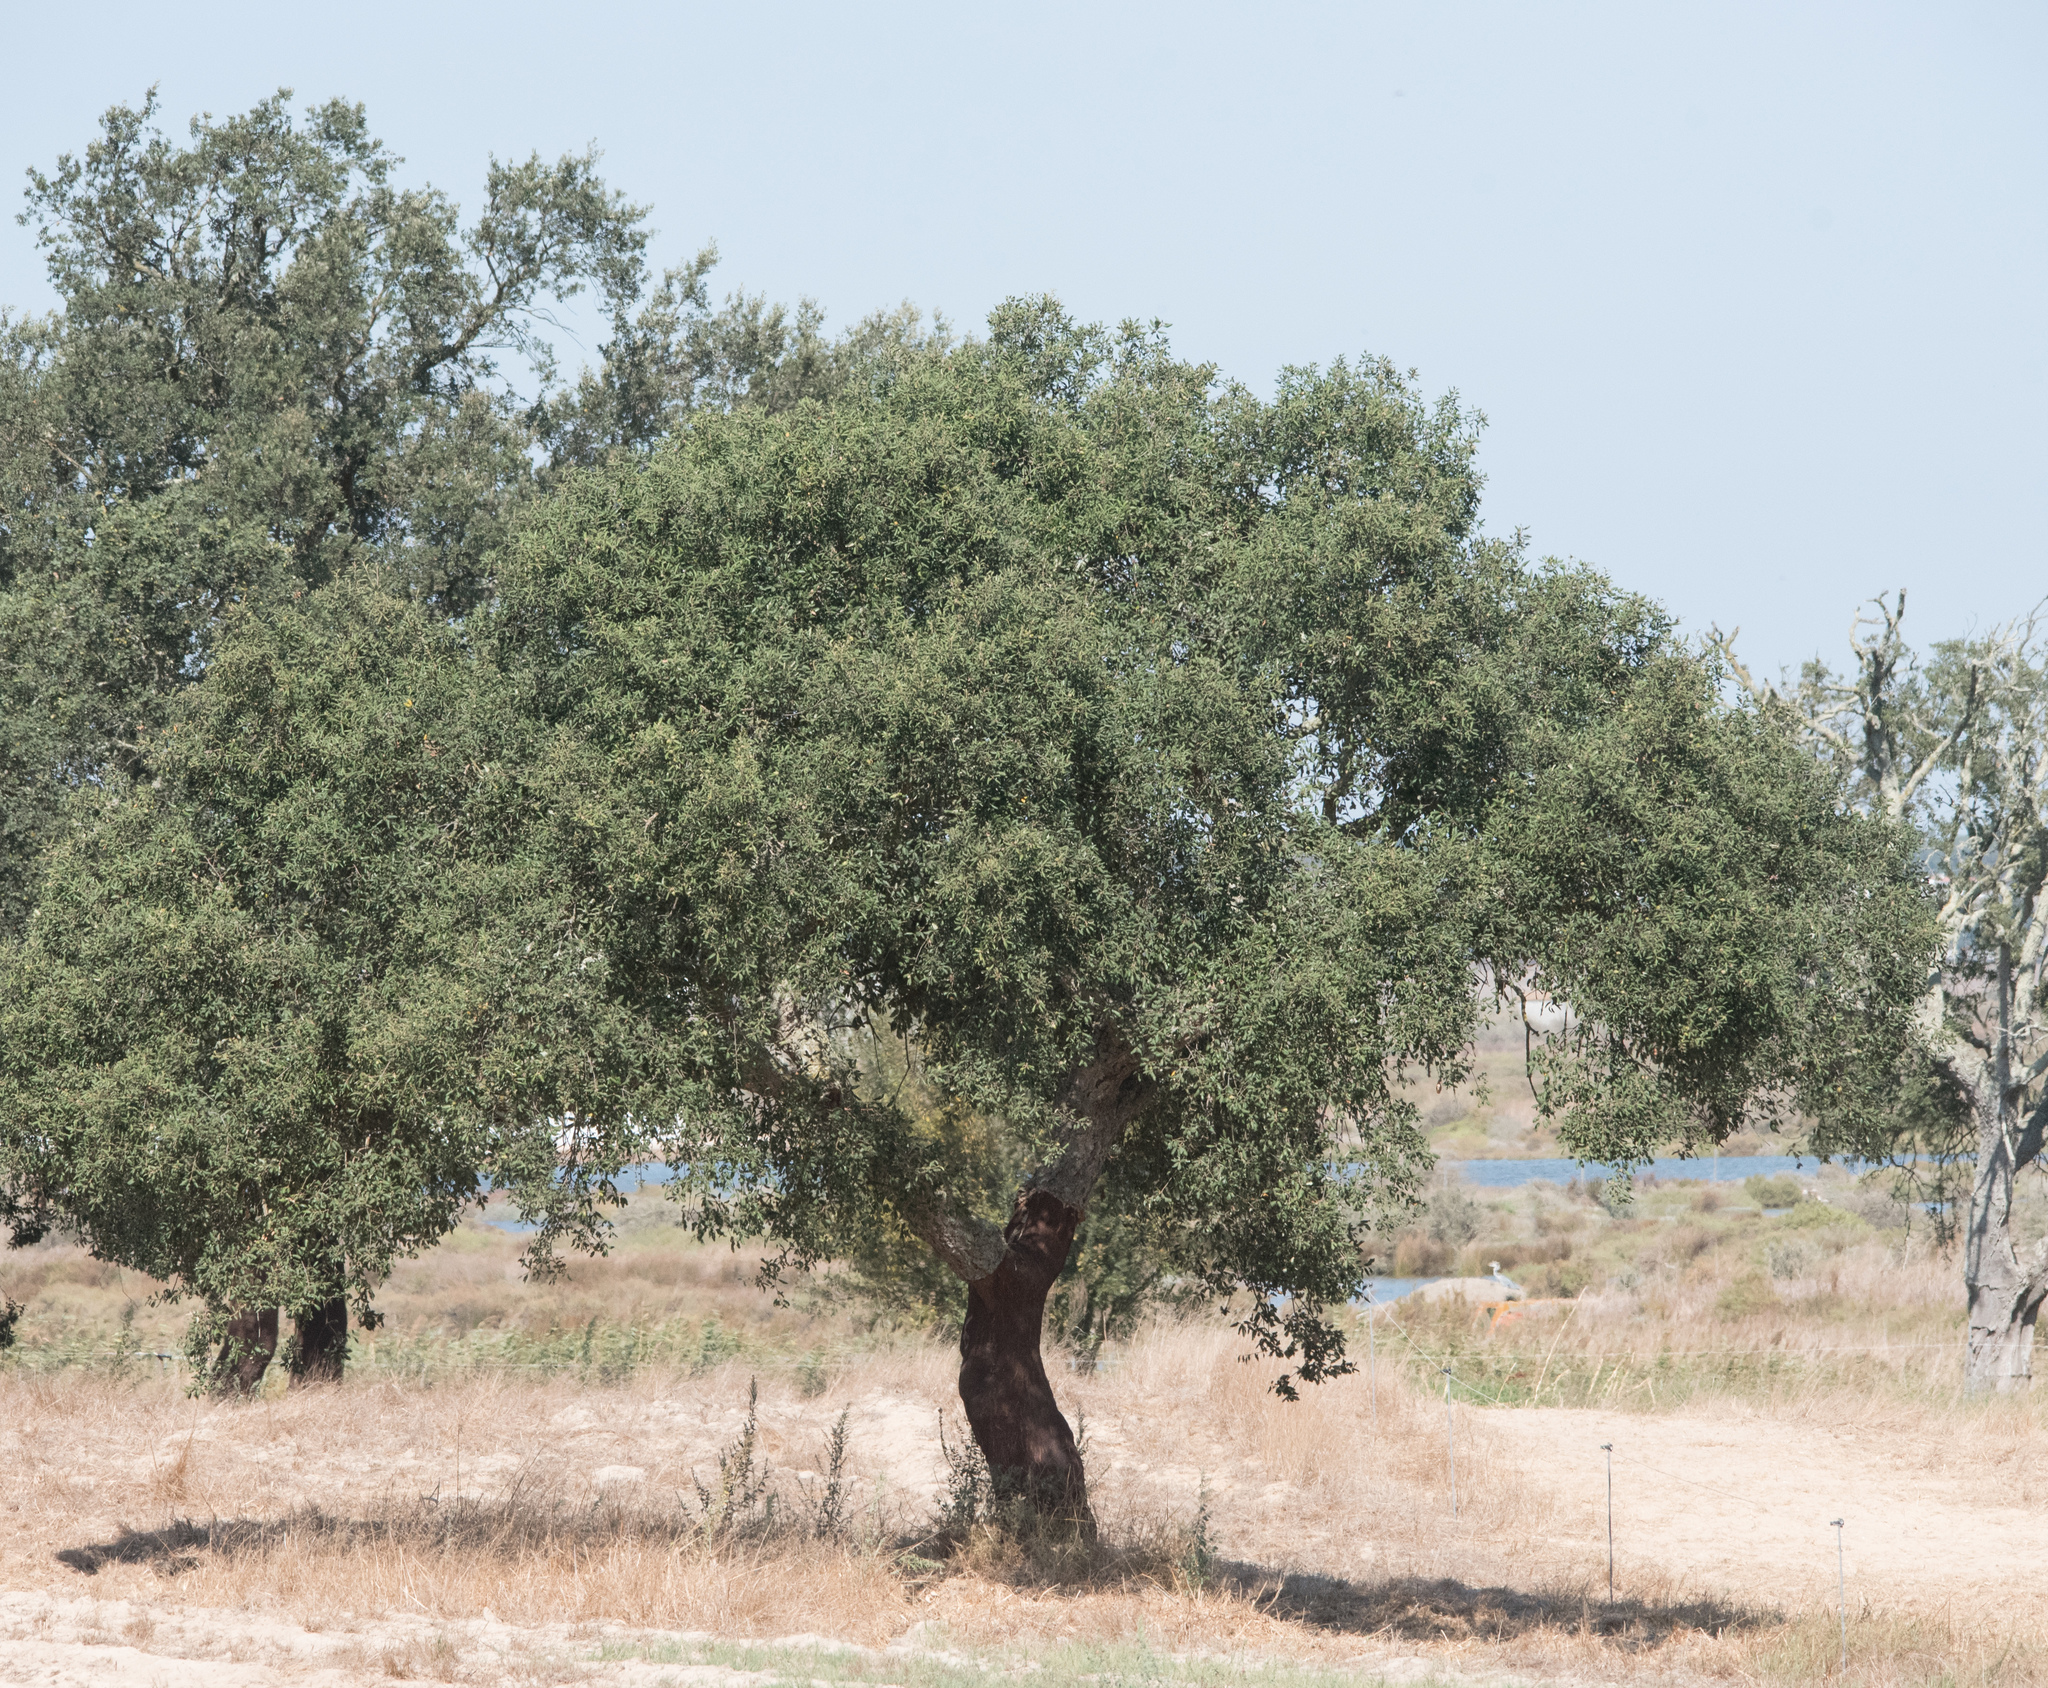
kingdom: Plantae
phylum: Tracheophyta
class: Magnoliopsida
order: Fagales
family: Fagaceae
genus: Quercus
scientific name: Quercus suber
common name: Cork oak
